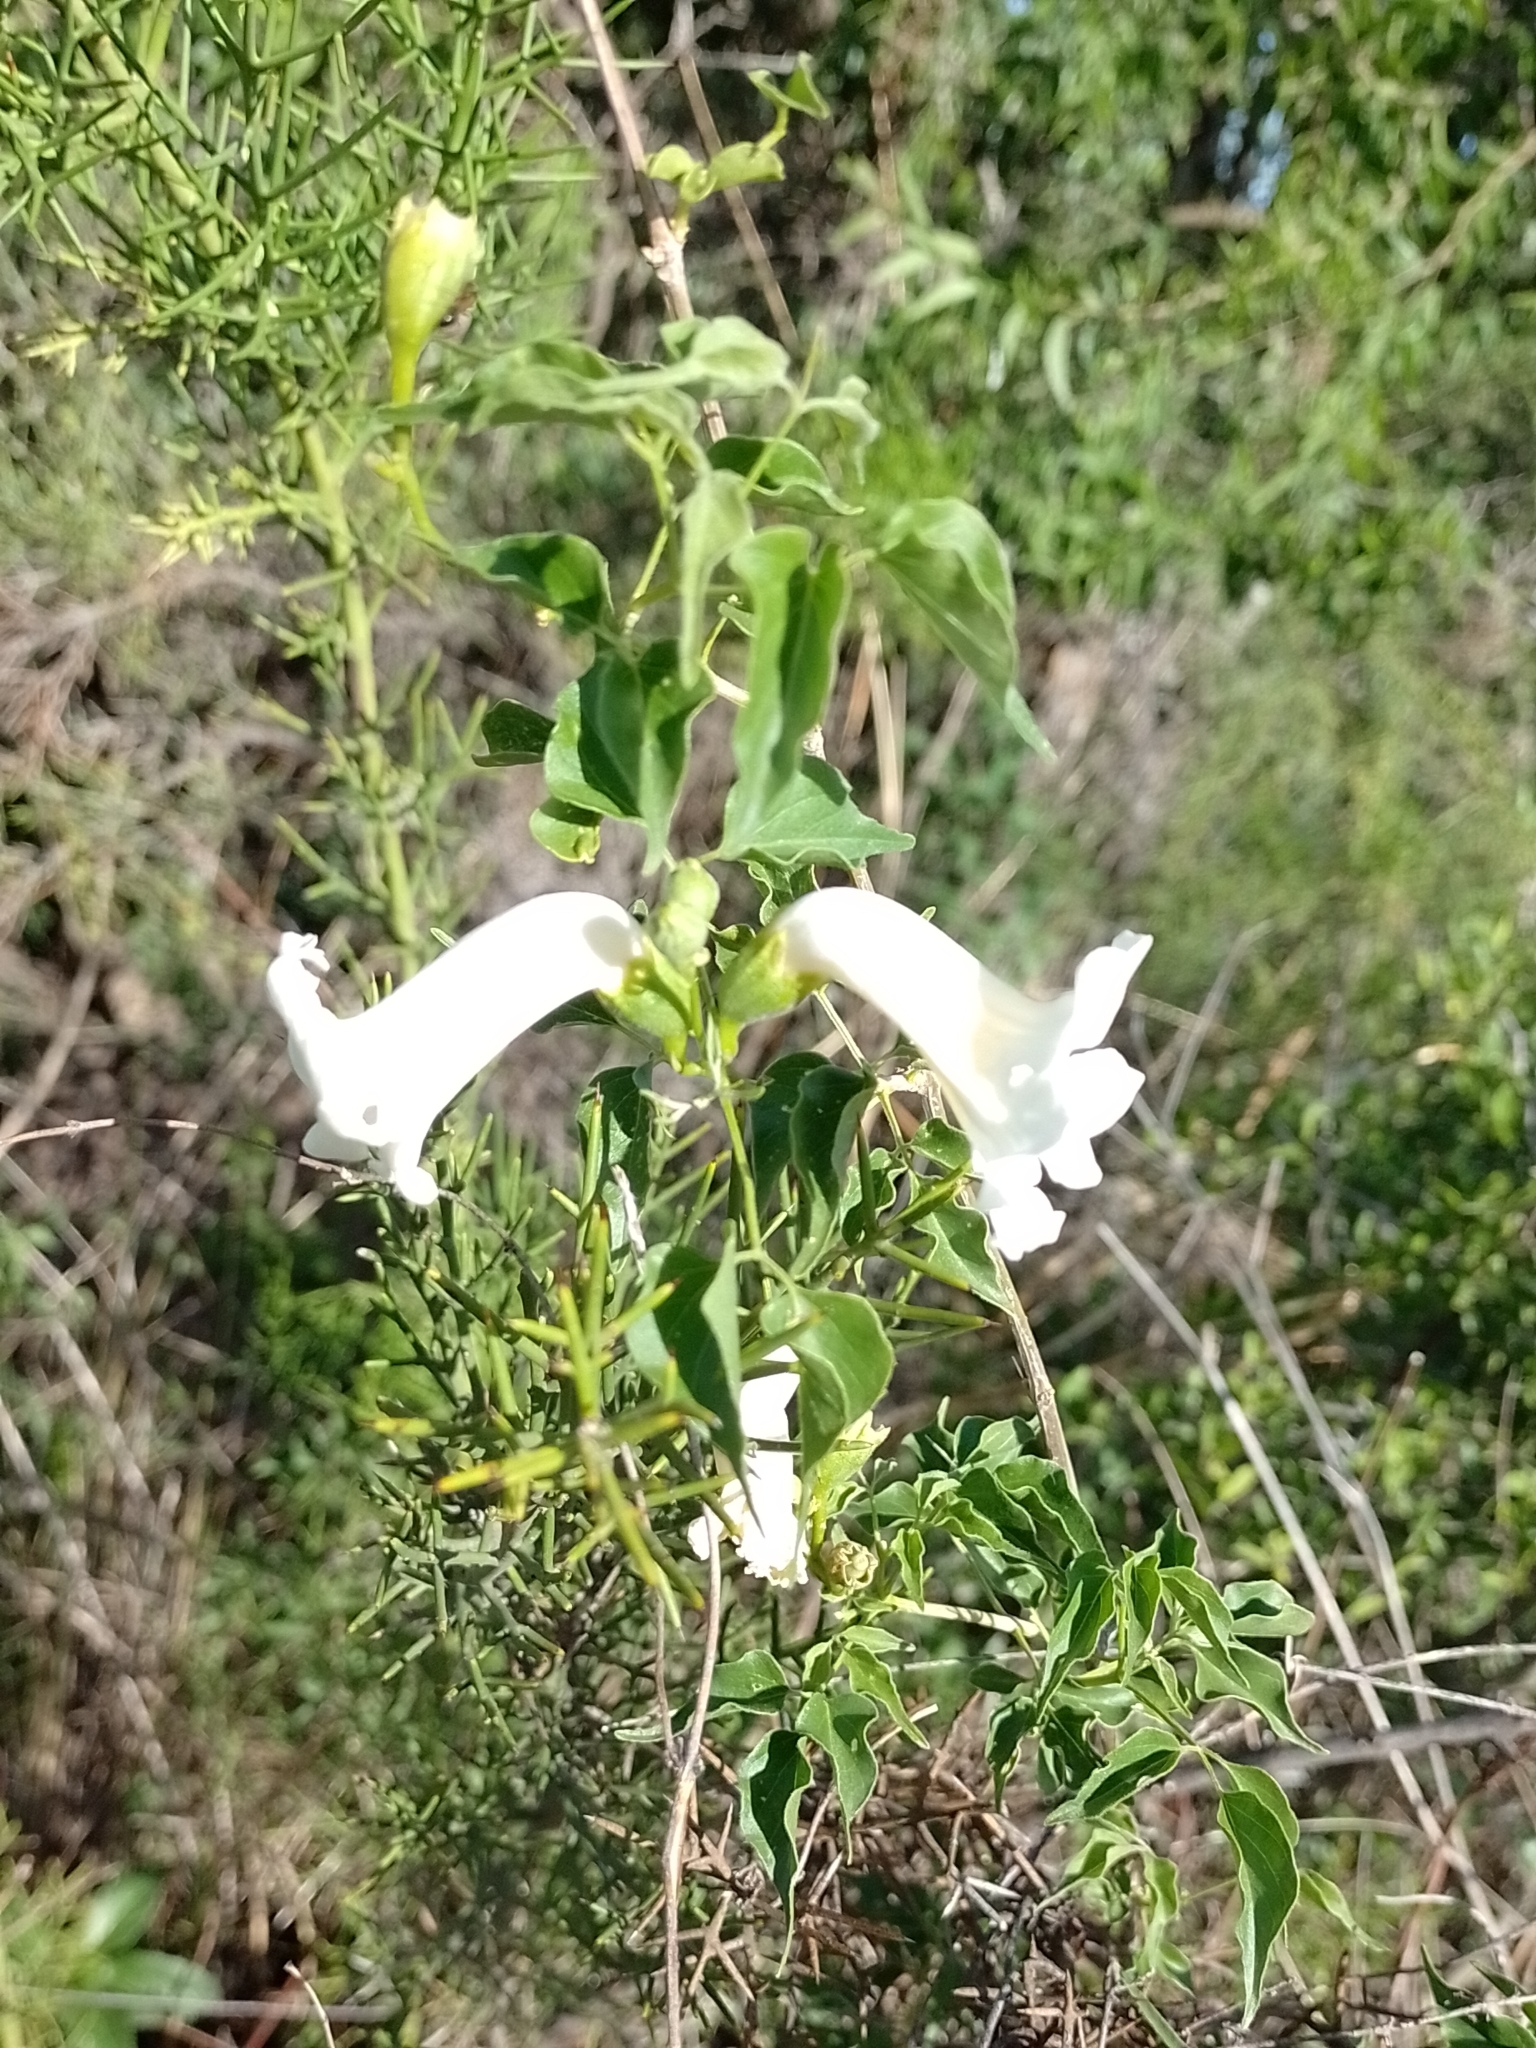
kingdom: Plantae
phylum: Tracheophyta
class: Magnoliopsida
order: Lamiales
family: Bignoniaceae
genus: Amphilophium
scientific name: Amphilophium carolinae
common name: Monkey's-comb
